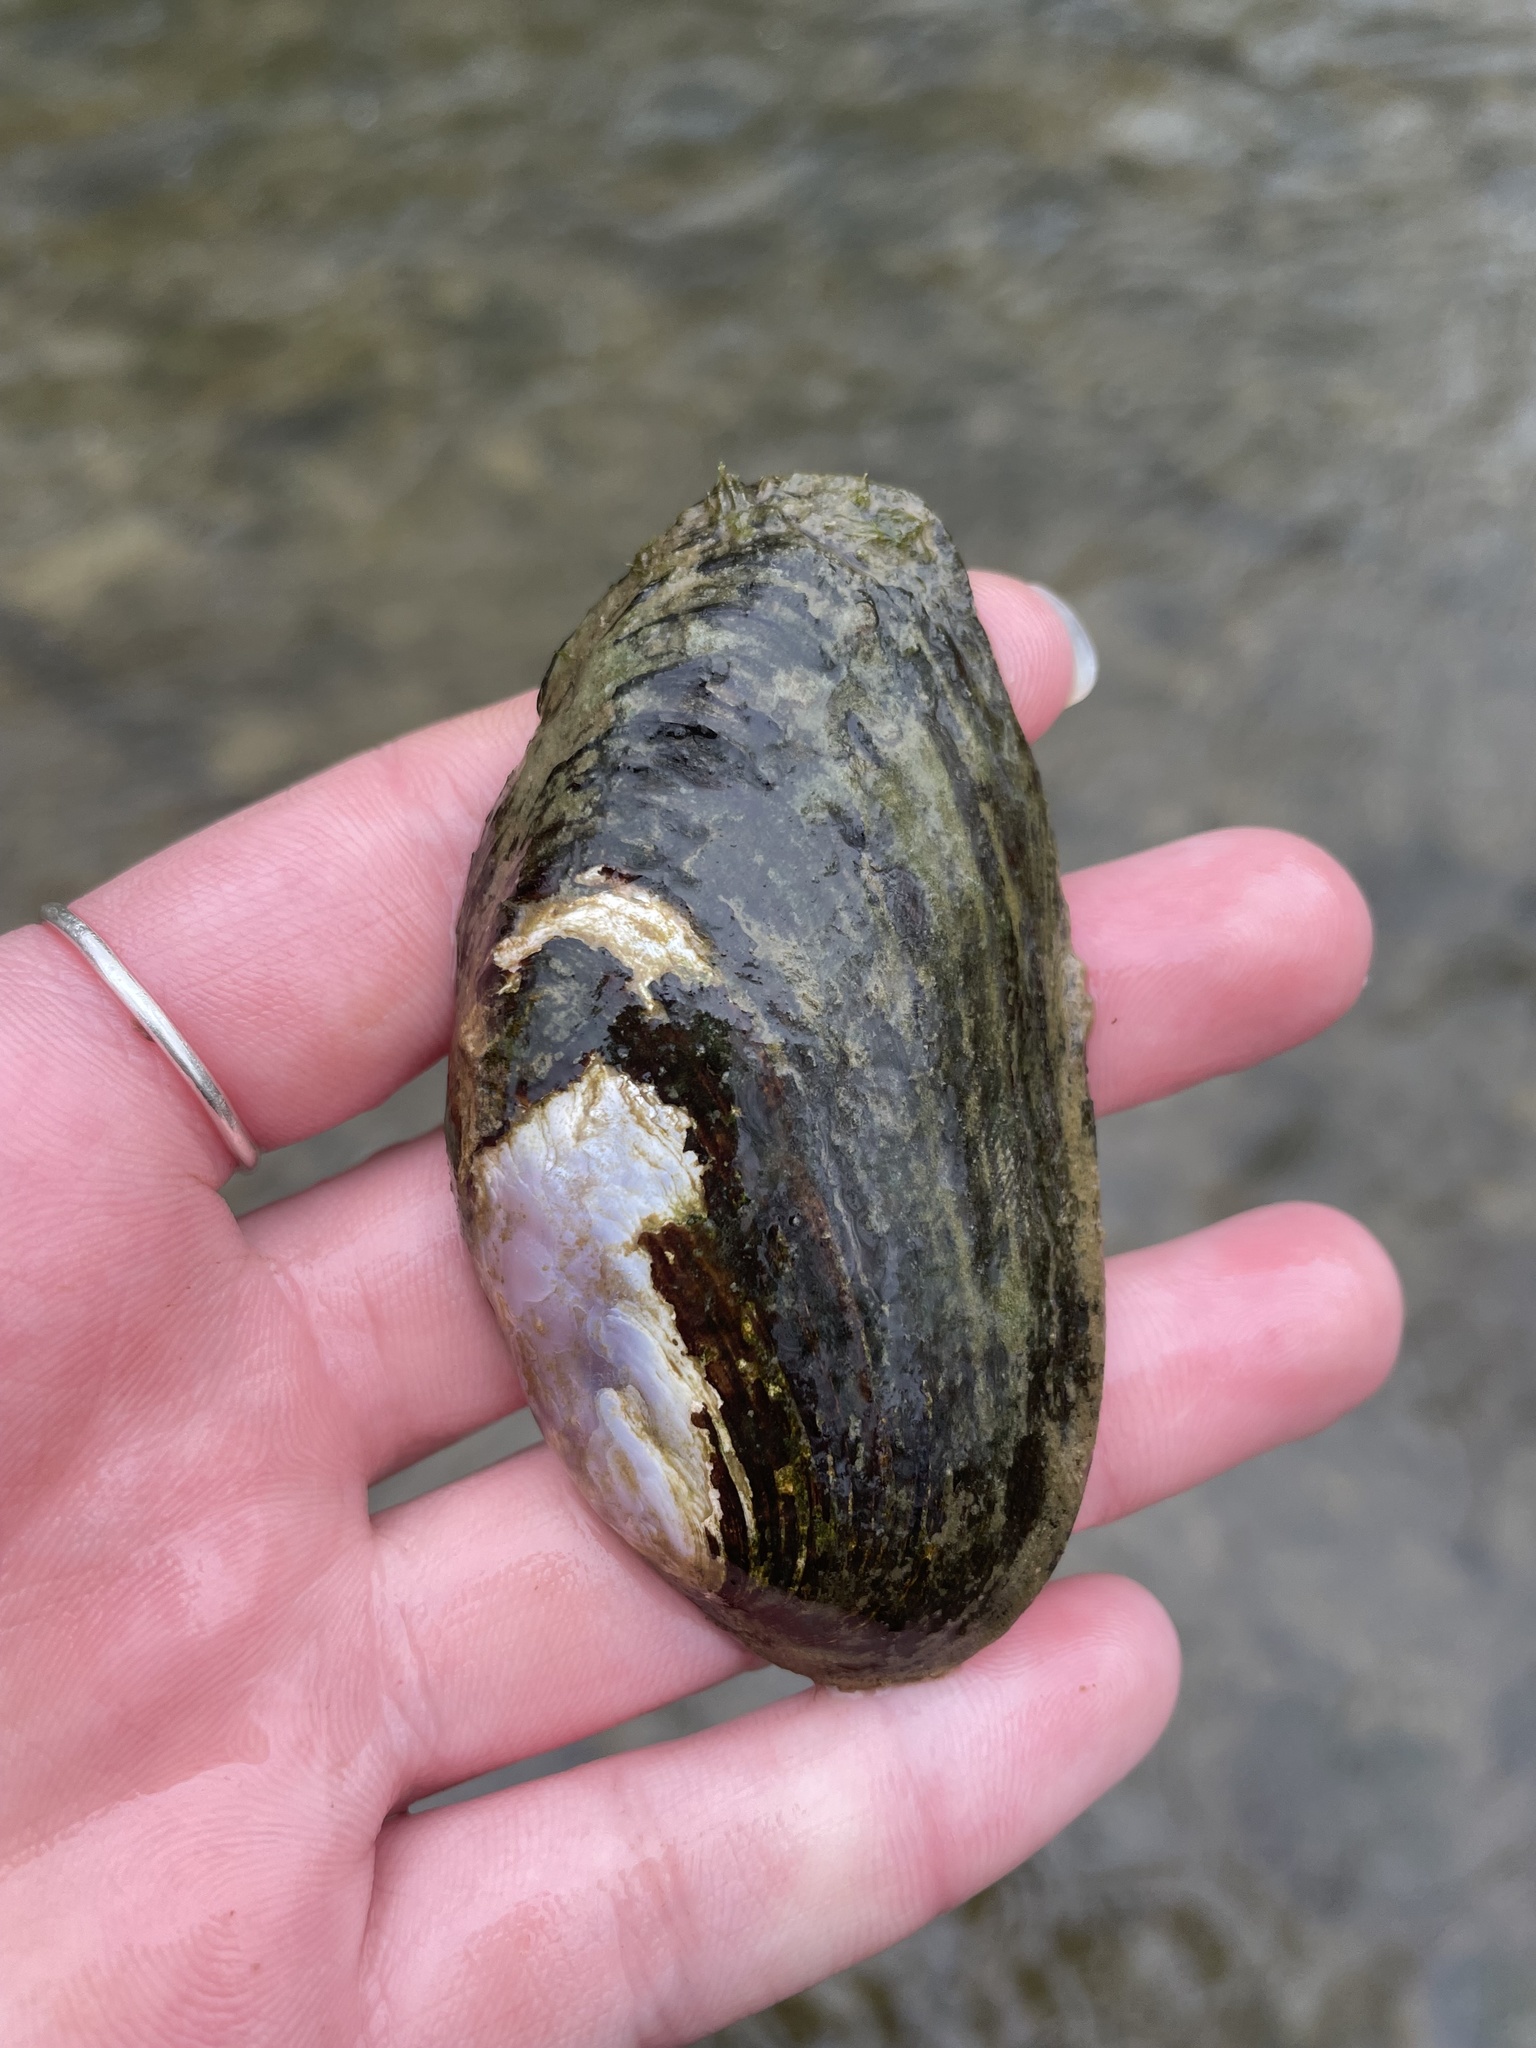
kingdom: Animalia
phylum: Mollusca
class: Bivalvia
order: Unionida
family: Unionidae
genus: Eurynia
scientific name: Eurynia dilatata
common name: Spike
